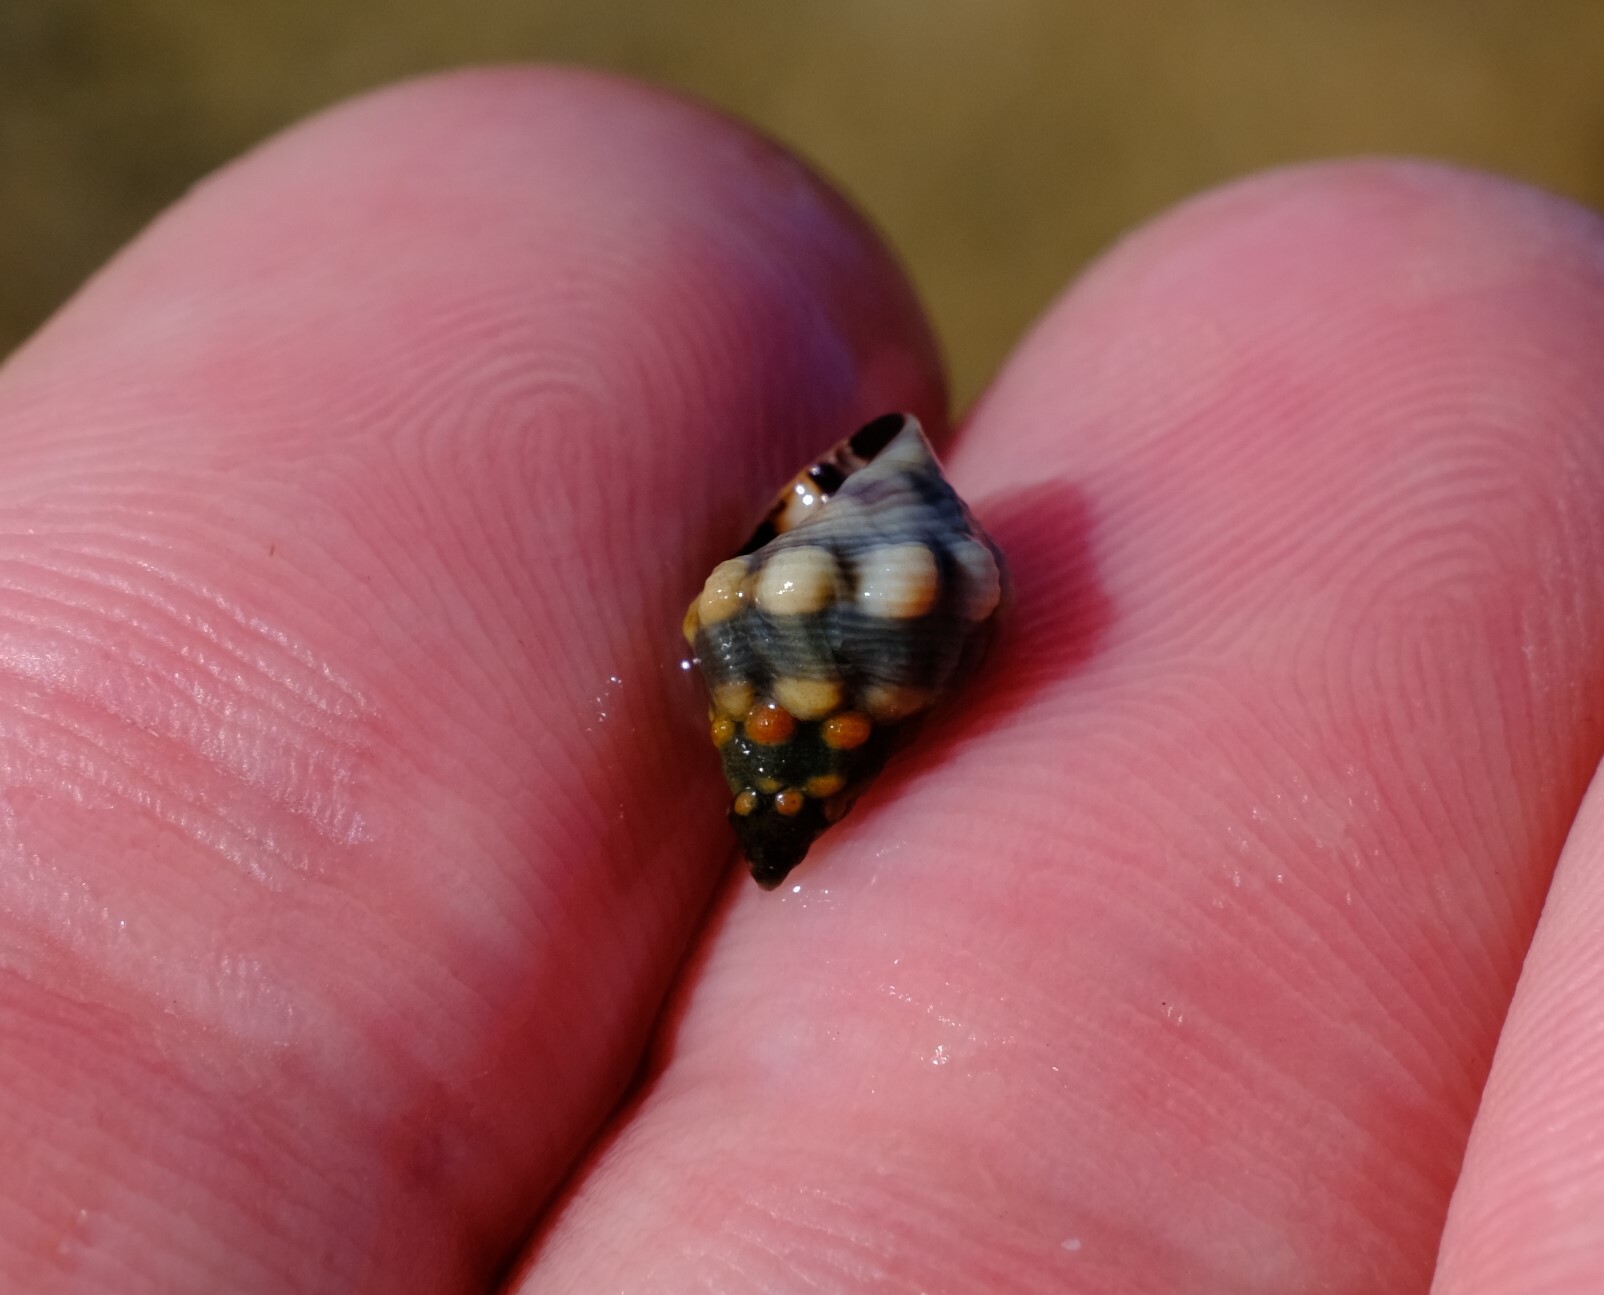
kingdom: Animalia
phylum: Mollusca
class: Gastropoda
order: Littorinimorpha
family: Littorinidae
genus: Echinolittorina
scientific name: Echinolittorina australis
